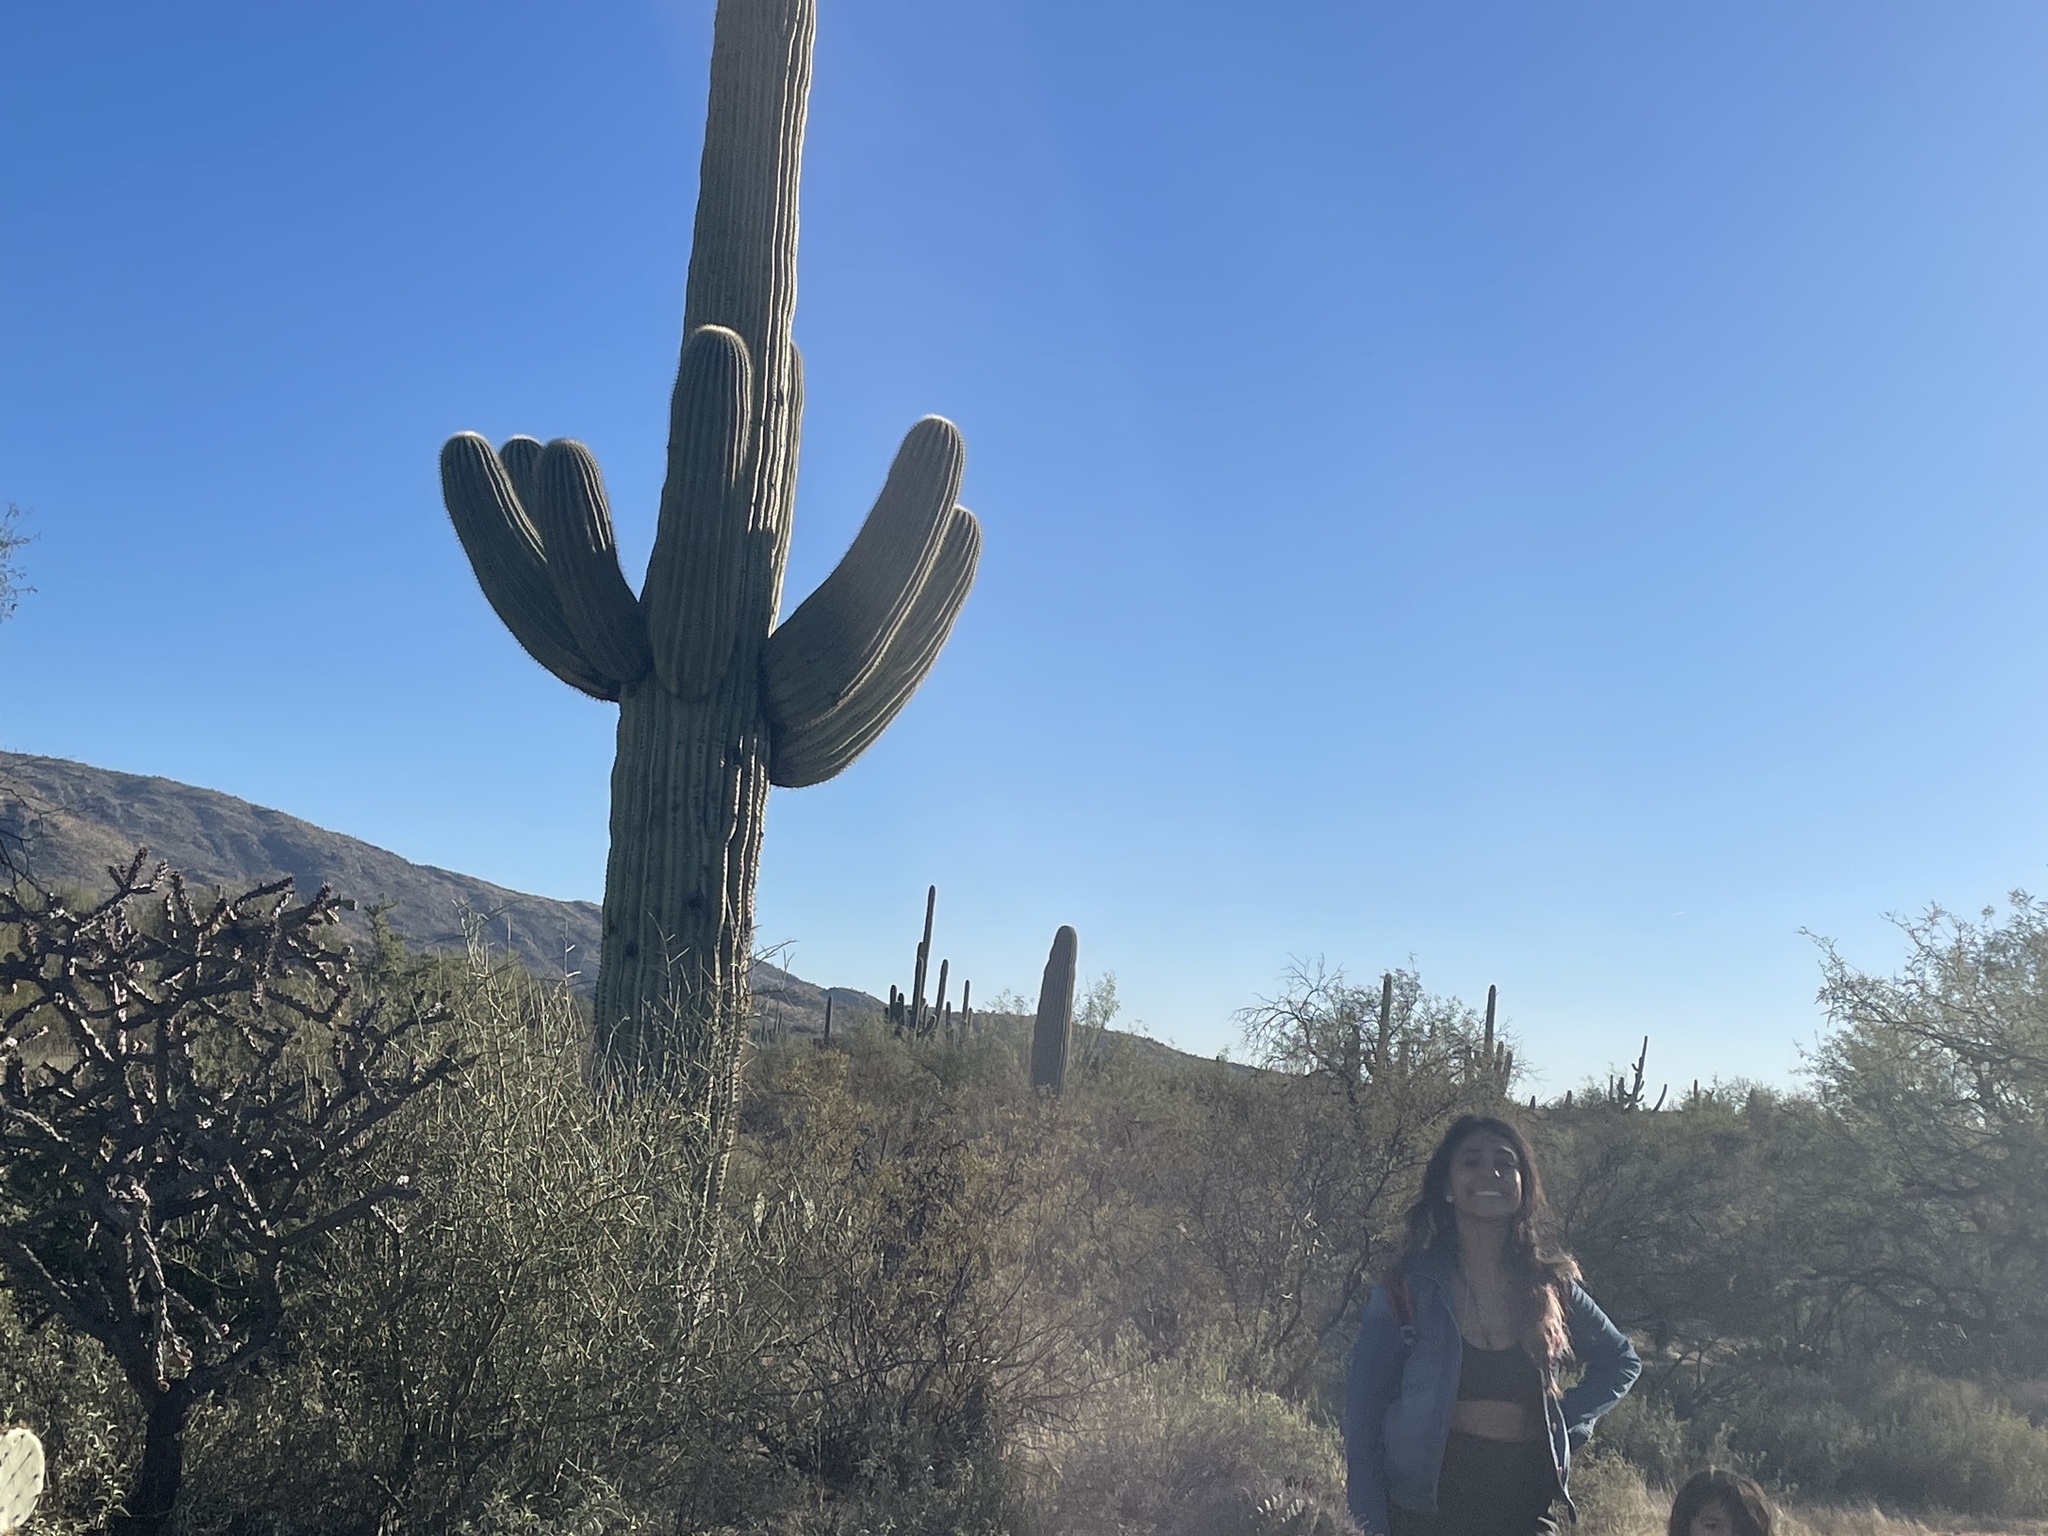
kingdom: Plantae
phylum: Tracheophyta
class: Magnoliopsida
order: Caryophyllales
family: Cactaceae
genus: Carnegiea
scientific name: Carnegiea gigantea
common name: Saguaro
